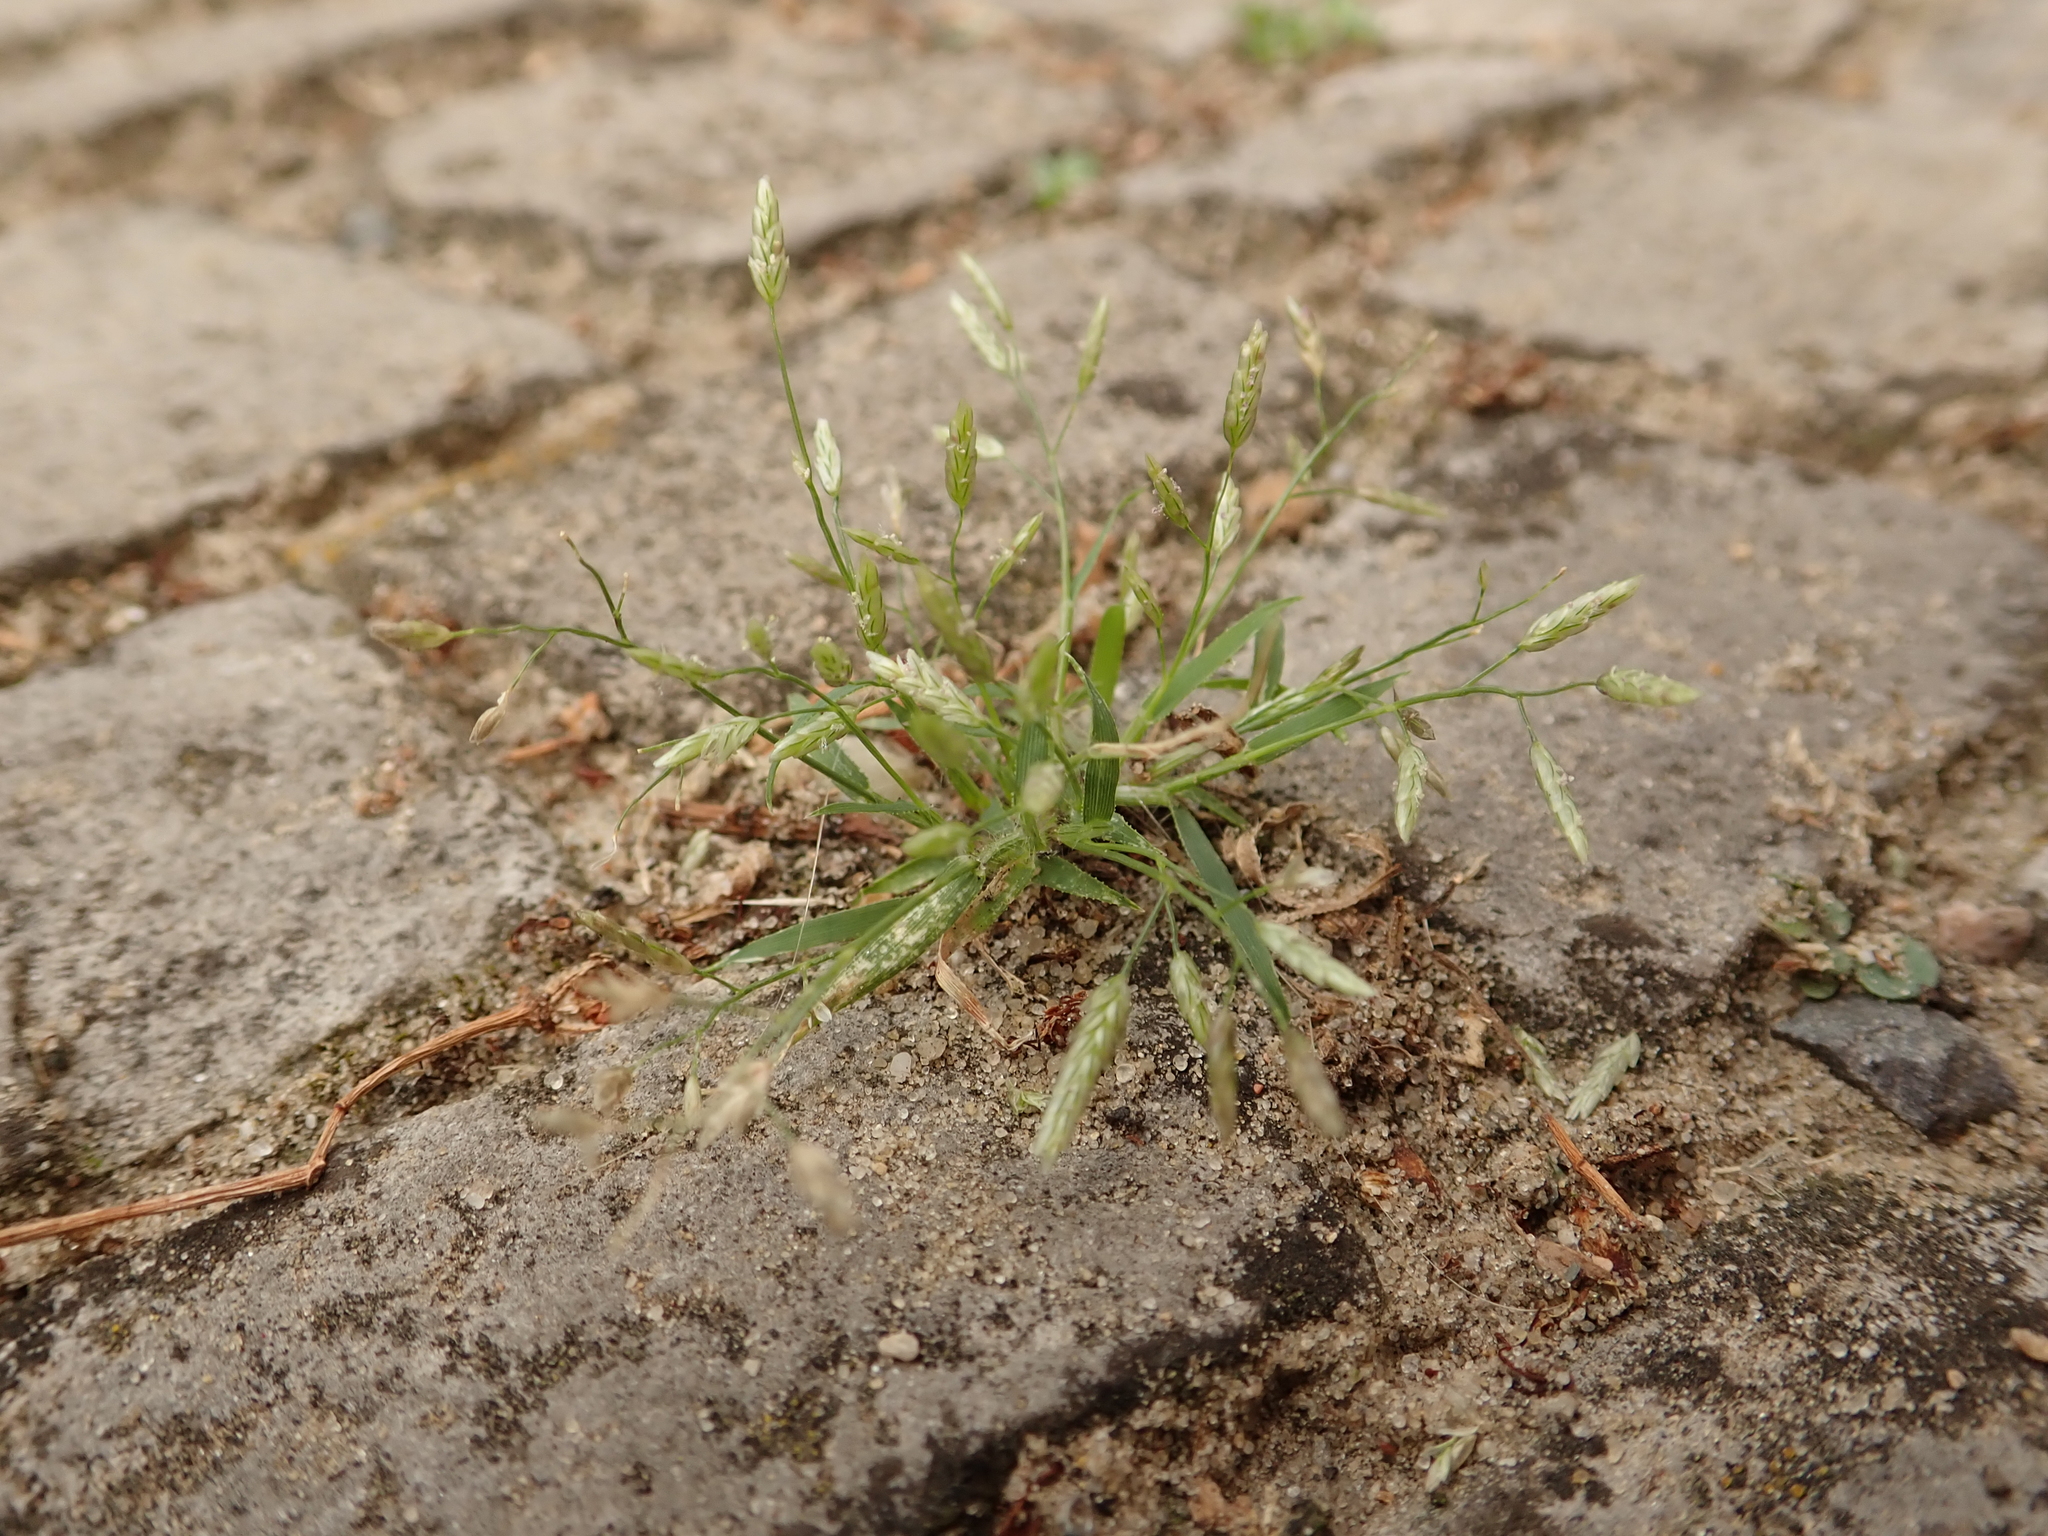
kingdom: Plantae
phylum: Tracheophyta
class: Liliopsida
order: Poales
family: Poaceae
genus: Eragrostis
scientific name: Eragrostis minor
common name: Small love-grass
